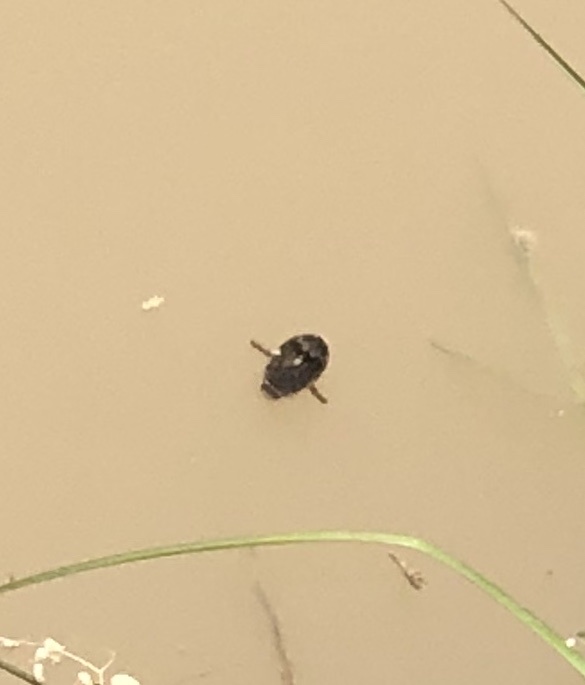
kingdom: Animalia
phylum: Arthropoda
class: Insecta
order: Coleoptera
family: Dytiscidae
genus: Thermonectus
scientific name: Thermonectus nigrofasciatus
